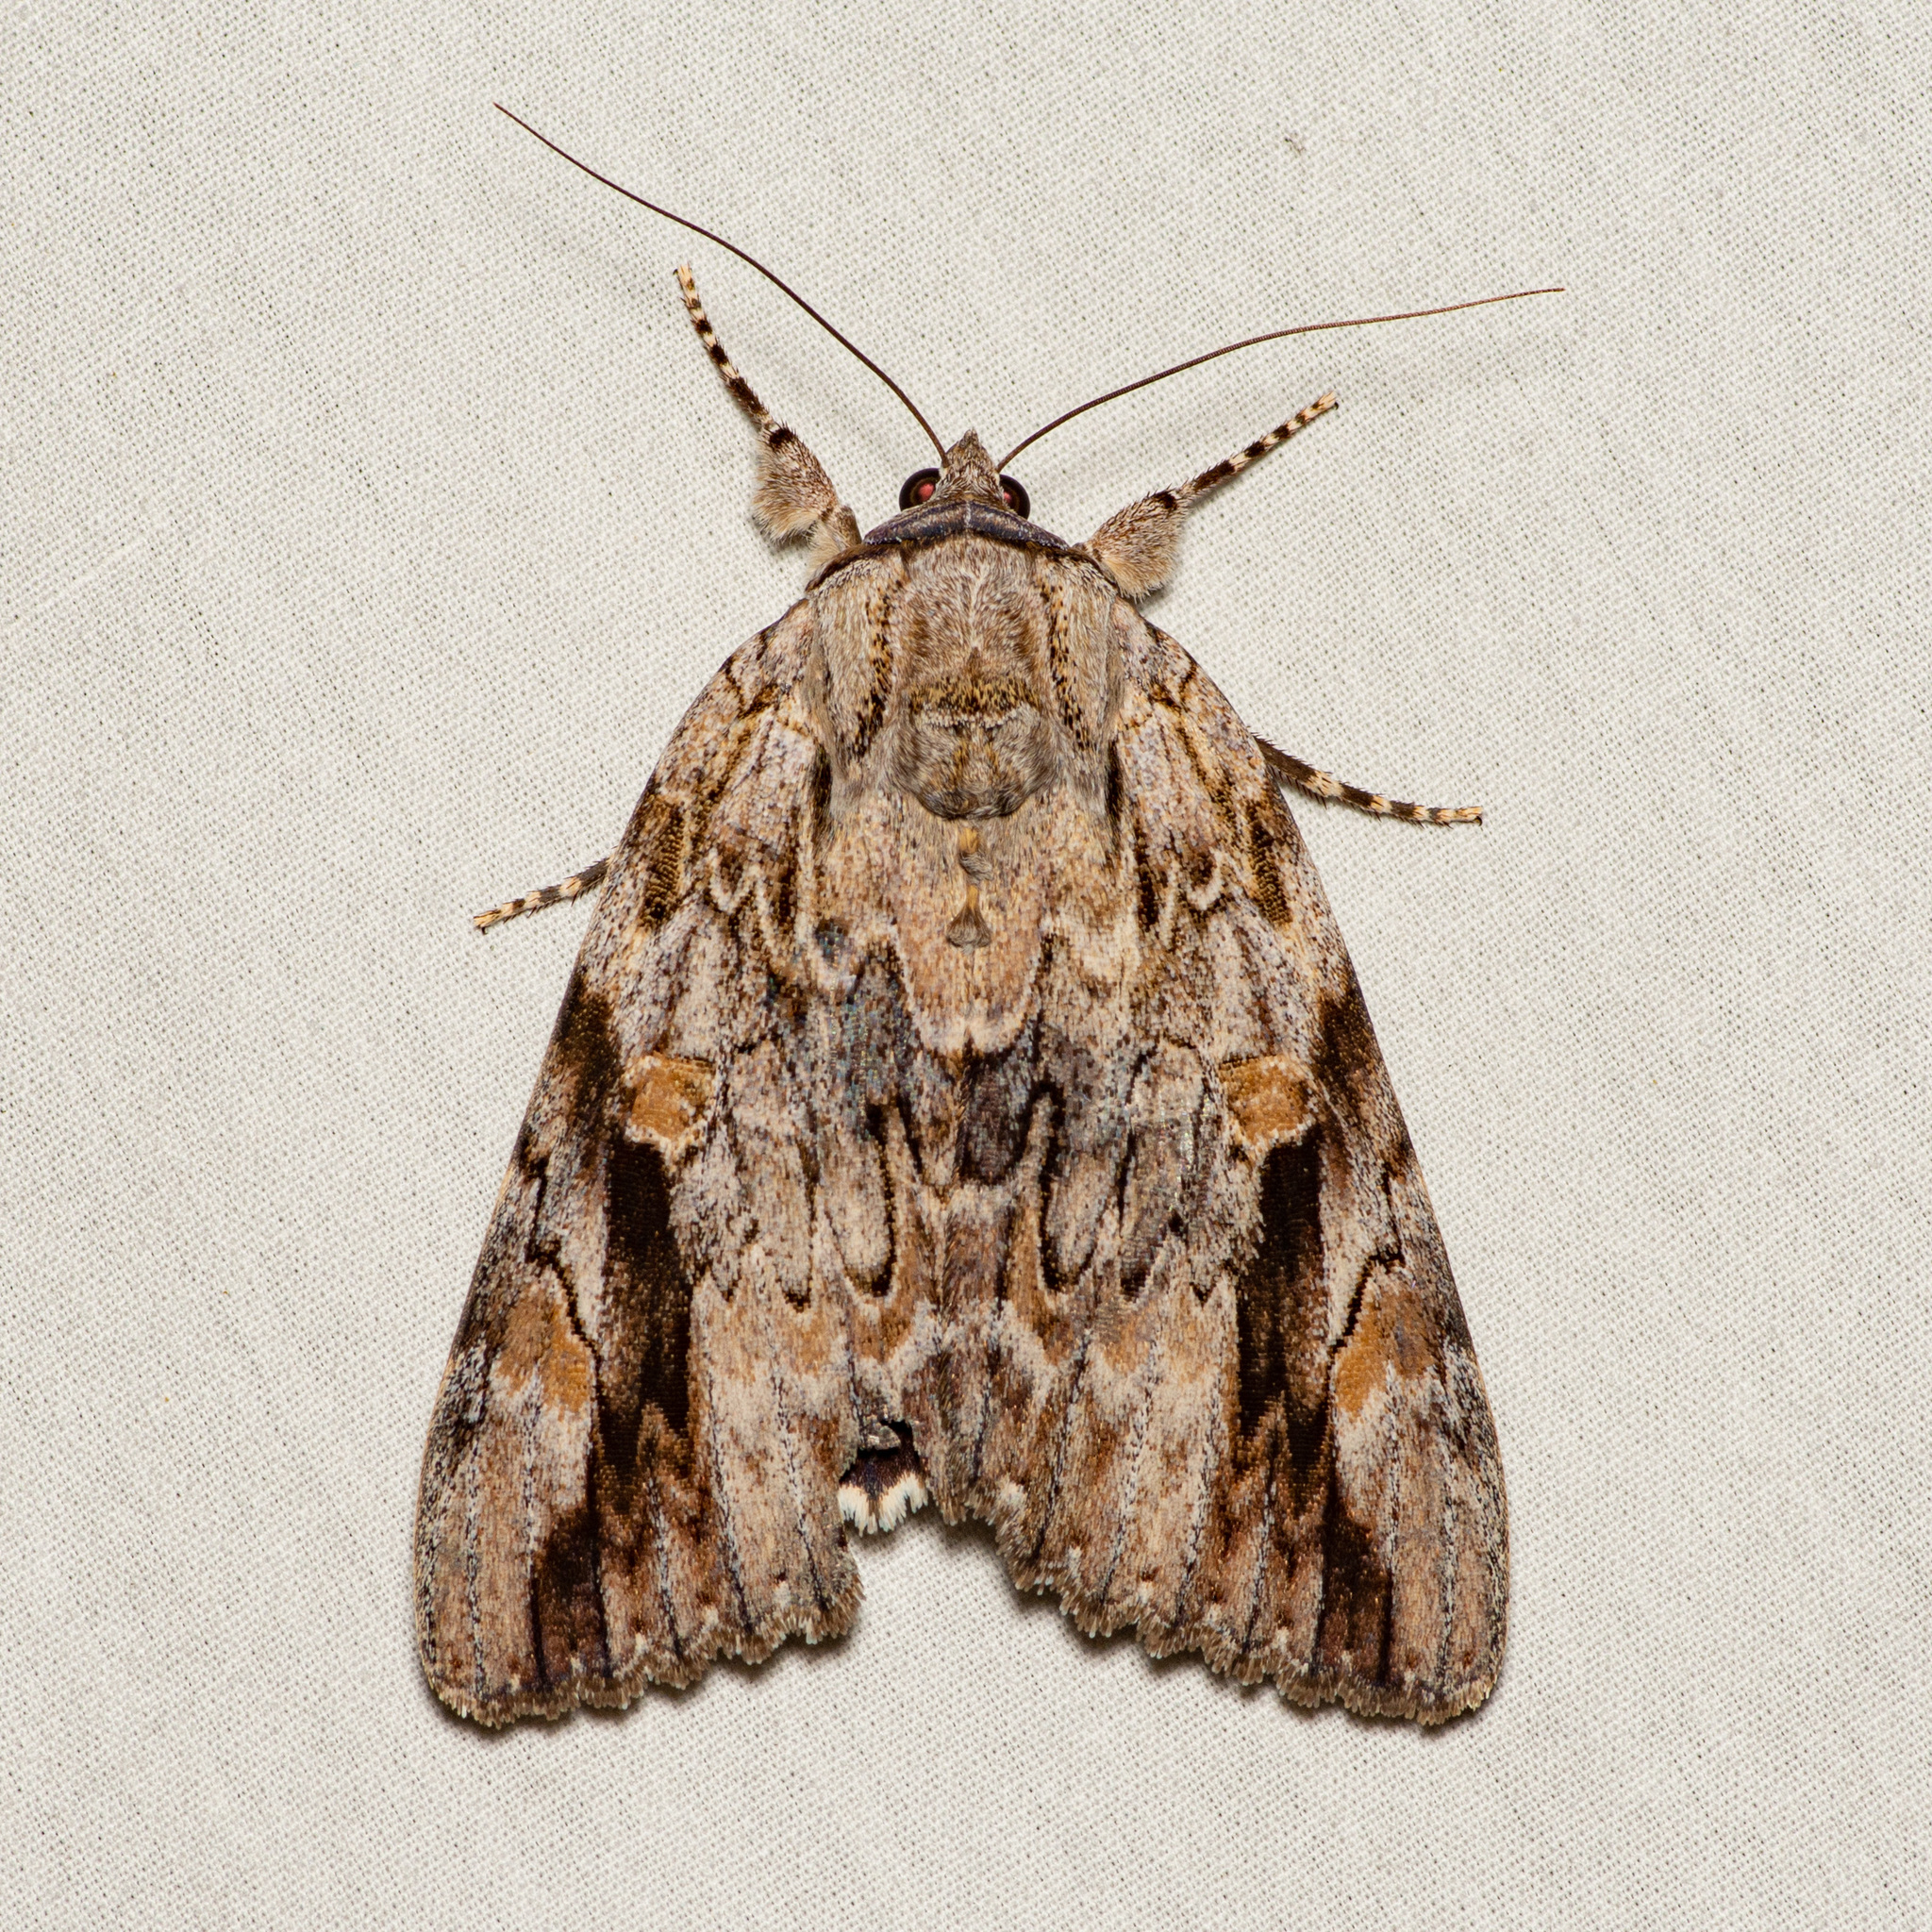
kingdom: Animalia
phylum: Arthropoda
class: Insecta
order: Lepidoptera
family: Erebidae
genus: Catocala
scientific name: Catocala maestosa
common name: Sad underwing
